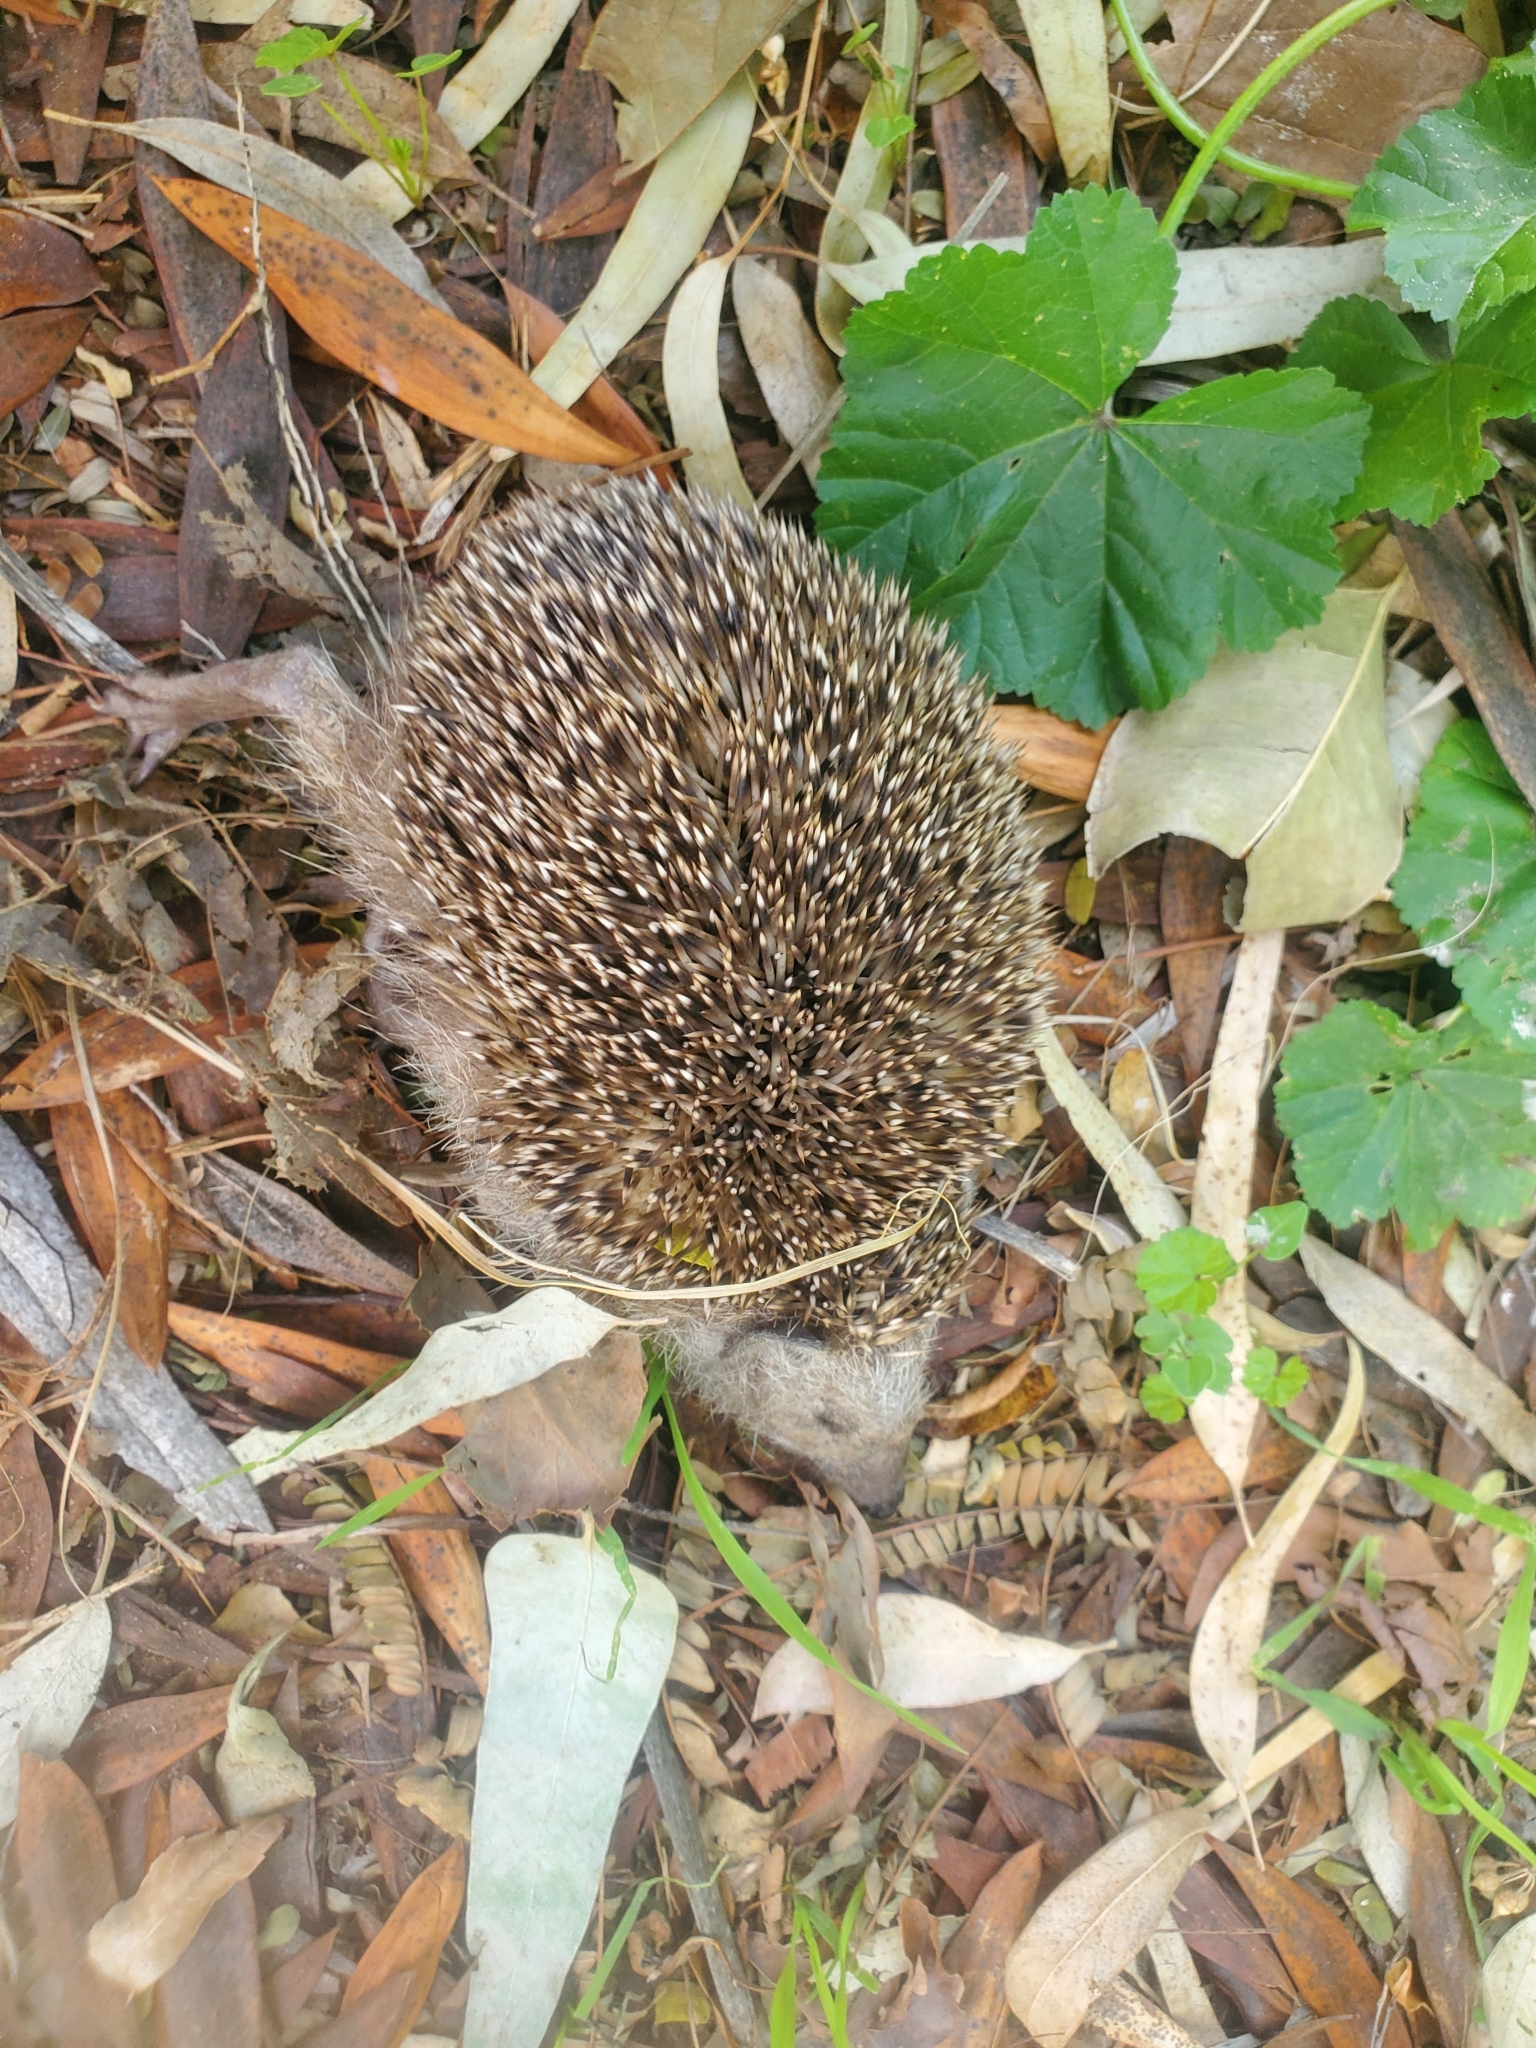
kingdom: Animalia
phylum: Chordata
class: Mammalia
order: Erinaceomorpha
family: Erinaceidae
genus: Erinaceus
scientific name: Erinaceus concolor
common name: Southern white-breasted hedgehog
